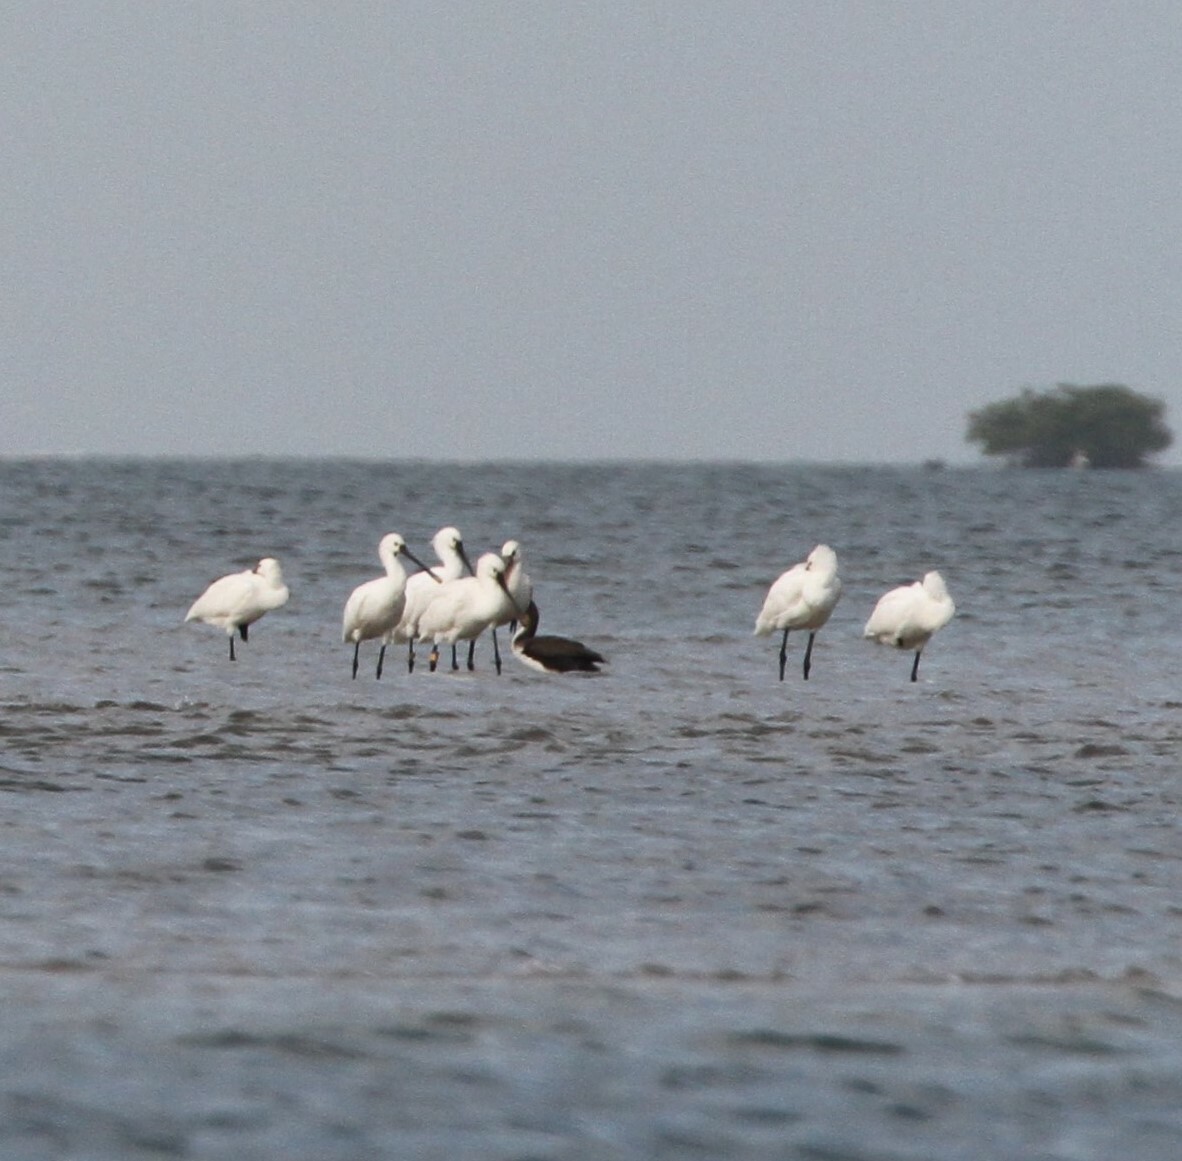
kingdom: Animalia
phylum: Chordata
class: Aves
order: Pelecaniformes
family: Threskiornithidae
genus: Platalea
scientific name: Platalea leucorodia
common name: Eurasian spoonbill
